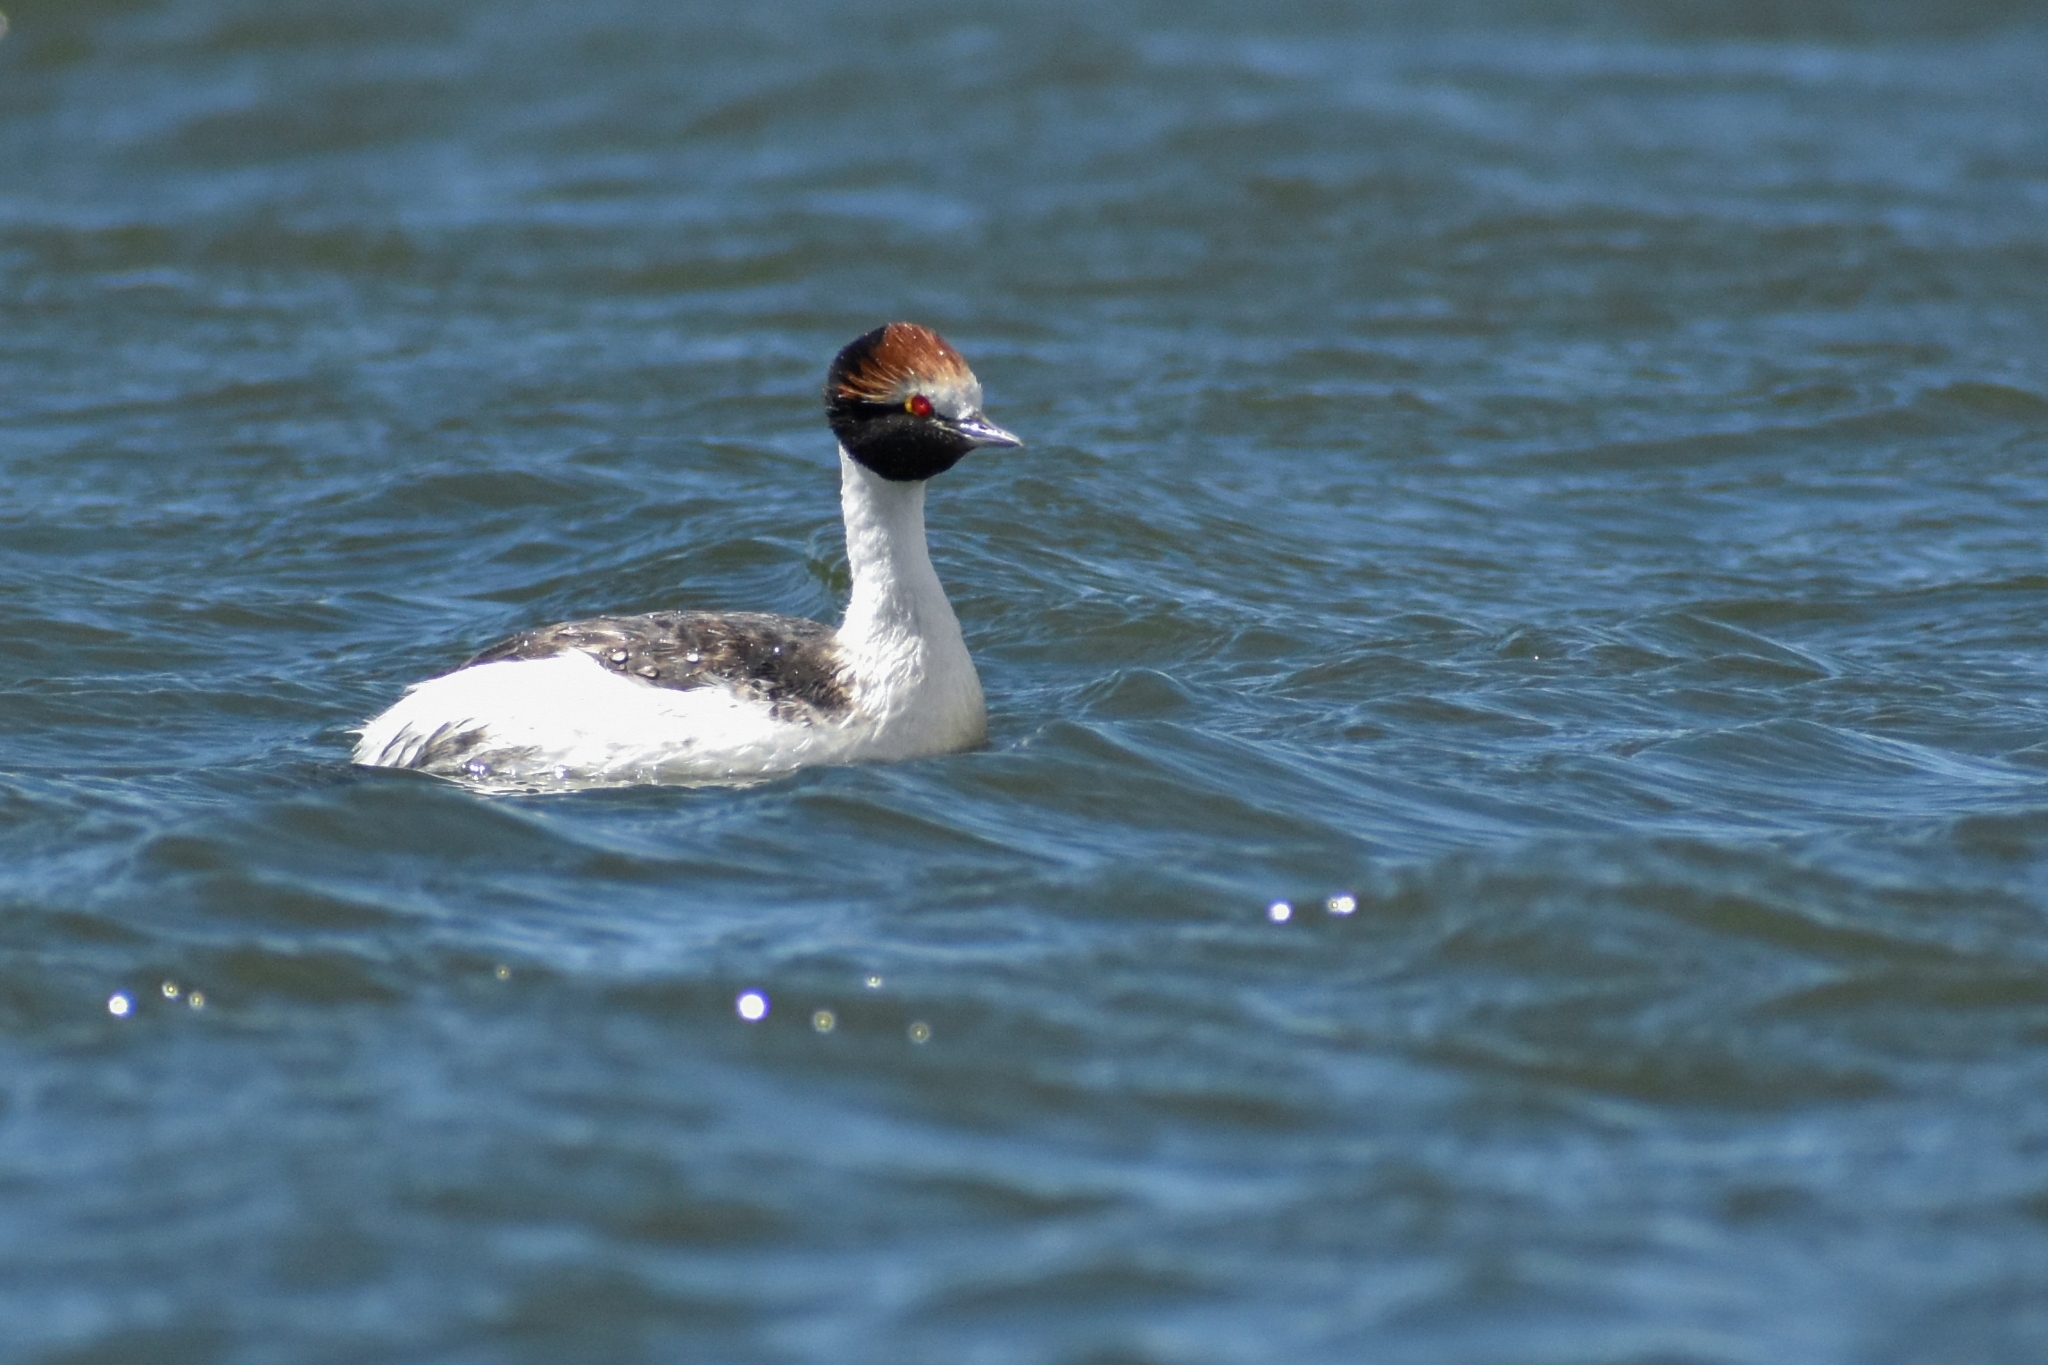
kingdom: Animalia
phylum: Chordata
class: Aves
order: Podicipediformes
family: Podicipedidae
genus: Podiceps
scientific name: Podiceps gallardoi
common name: Hooded grebe
